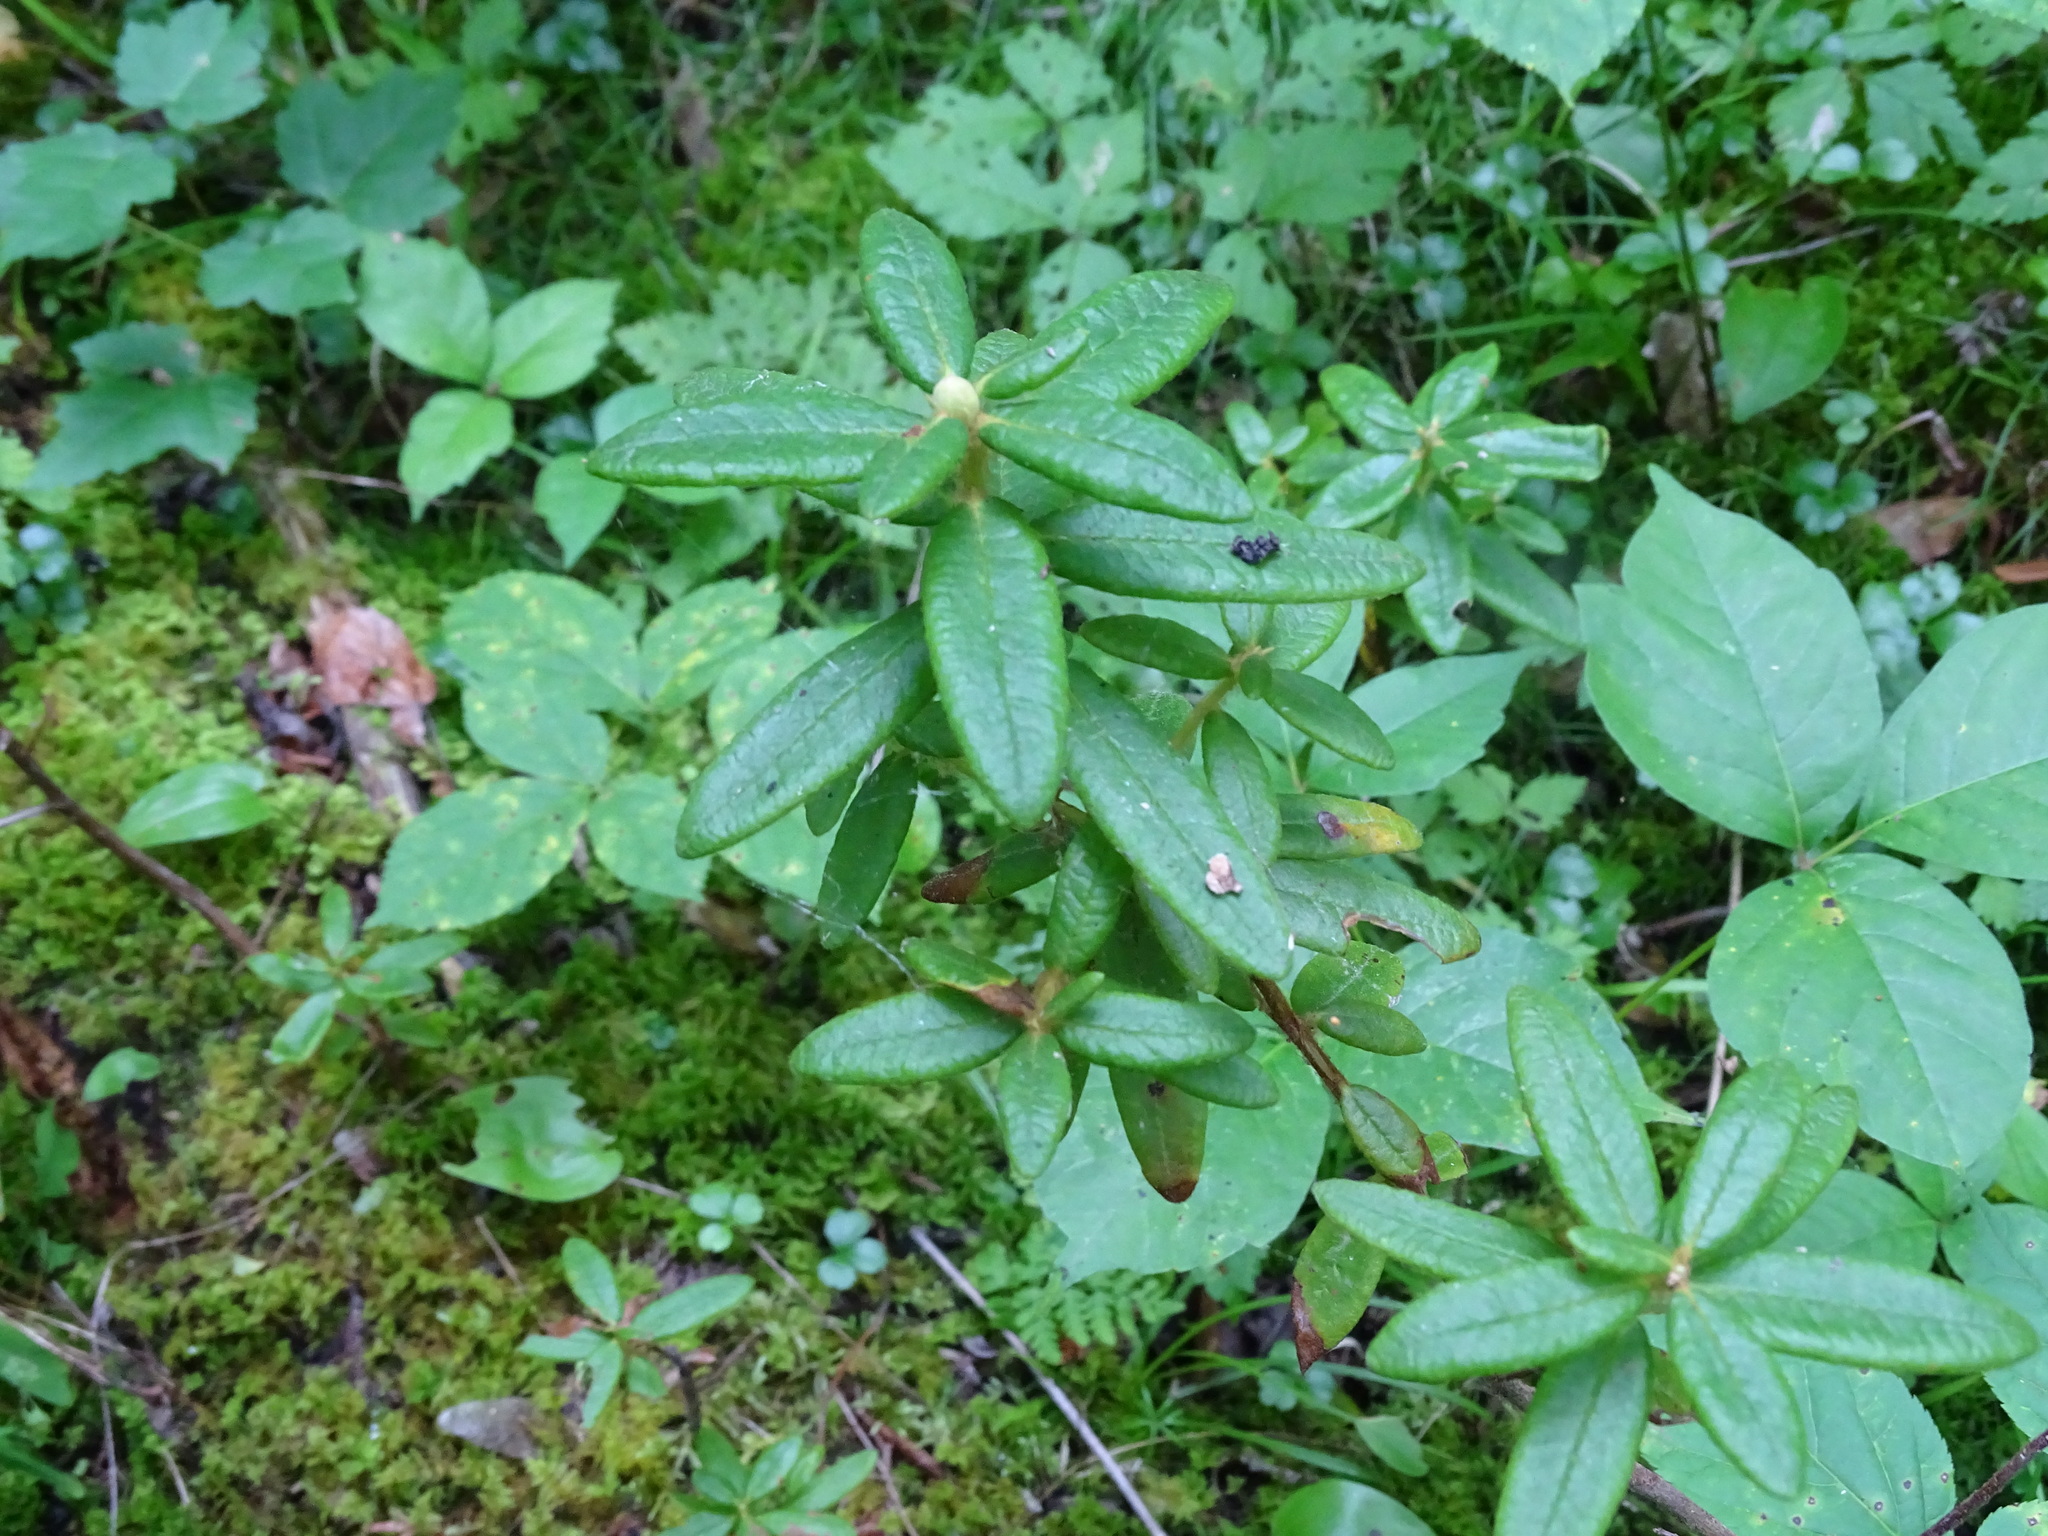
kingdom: Plantae
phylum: Tracheophyta
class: Magnoliopsida
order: Ericales
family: Ericaceae
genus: Rhododendron
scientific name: Rhododendron groenlandicum
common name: Bog labrador tea
